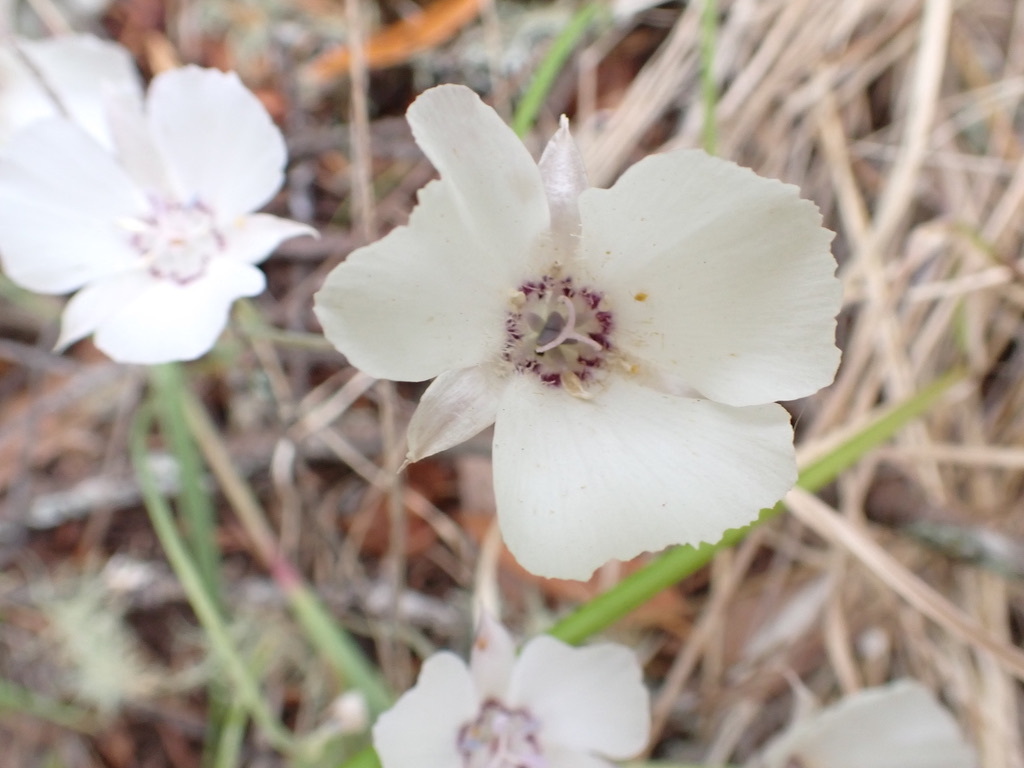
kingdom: Plantae
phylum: Tracheophyta
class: Liliopsida
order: Liliales
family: Liliaceae
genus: Calochortus
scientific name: Calochortus umbellatus
